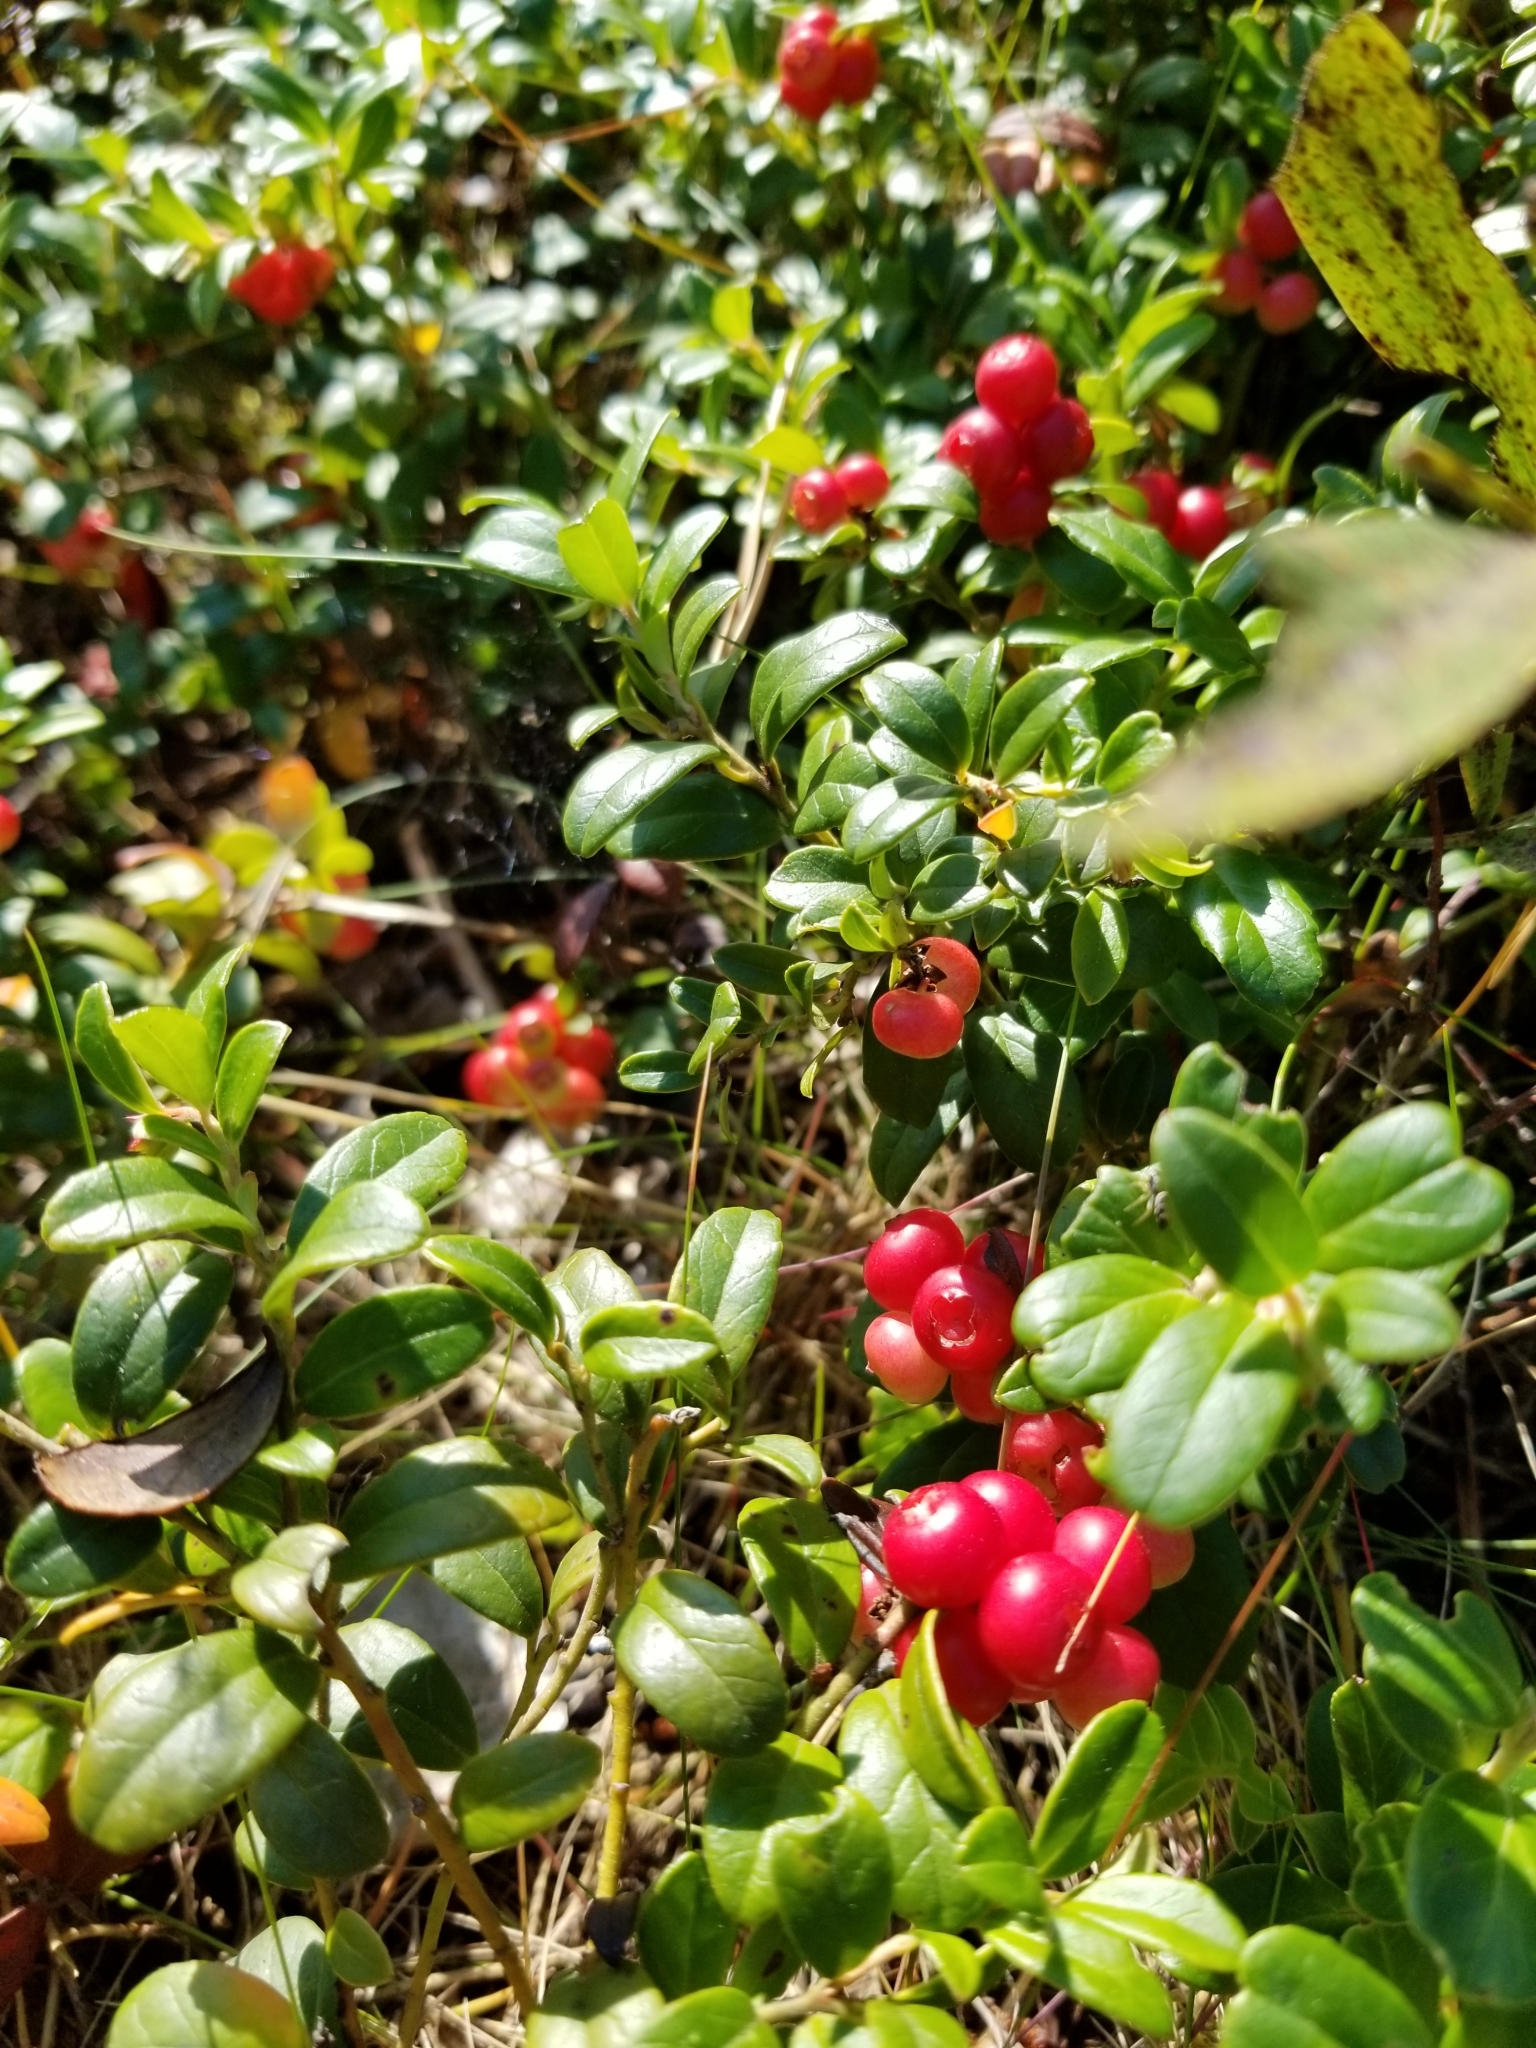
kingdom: Plantae
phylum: Tracheophyta
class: Magnoliopsida
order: Ericales
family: Ericaceae
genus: Vaccinium
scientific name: Vaccinium vitis-idaea
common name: Cowberry
